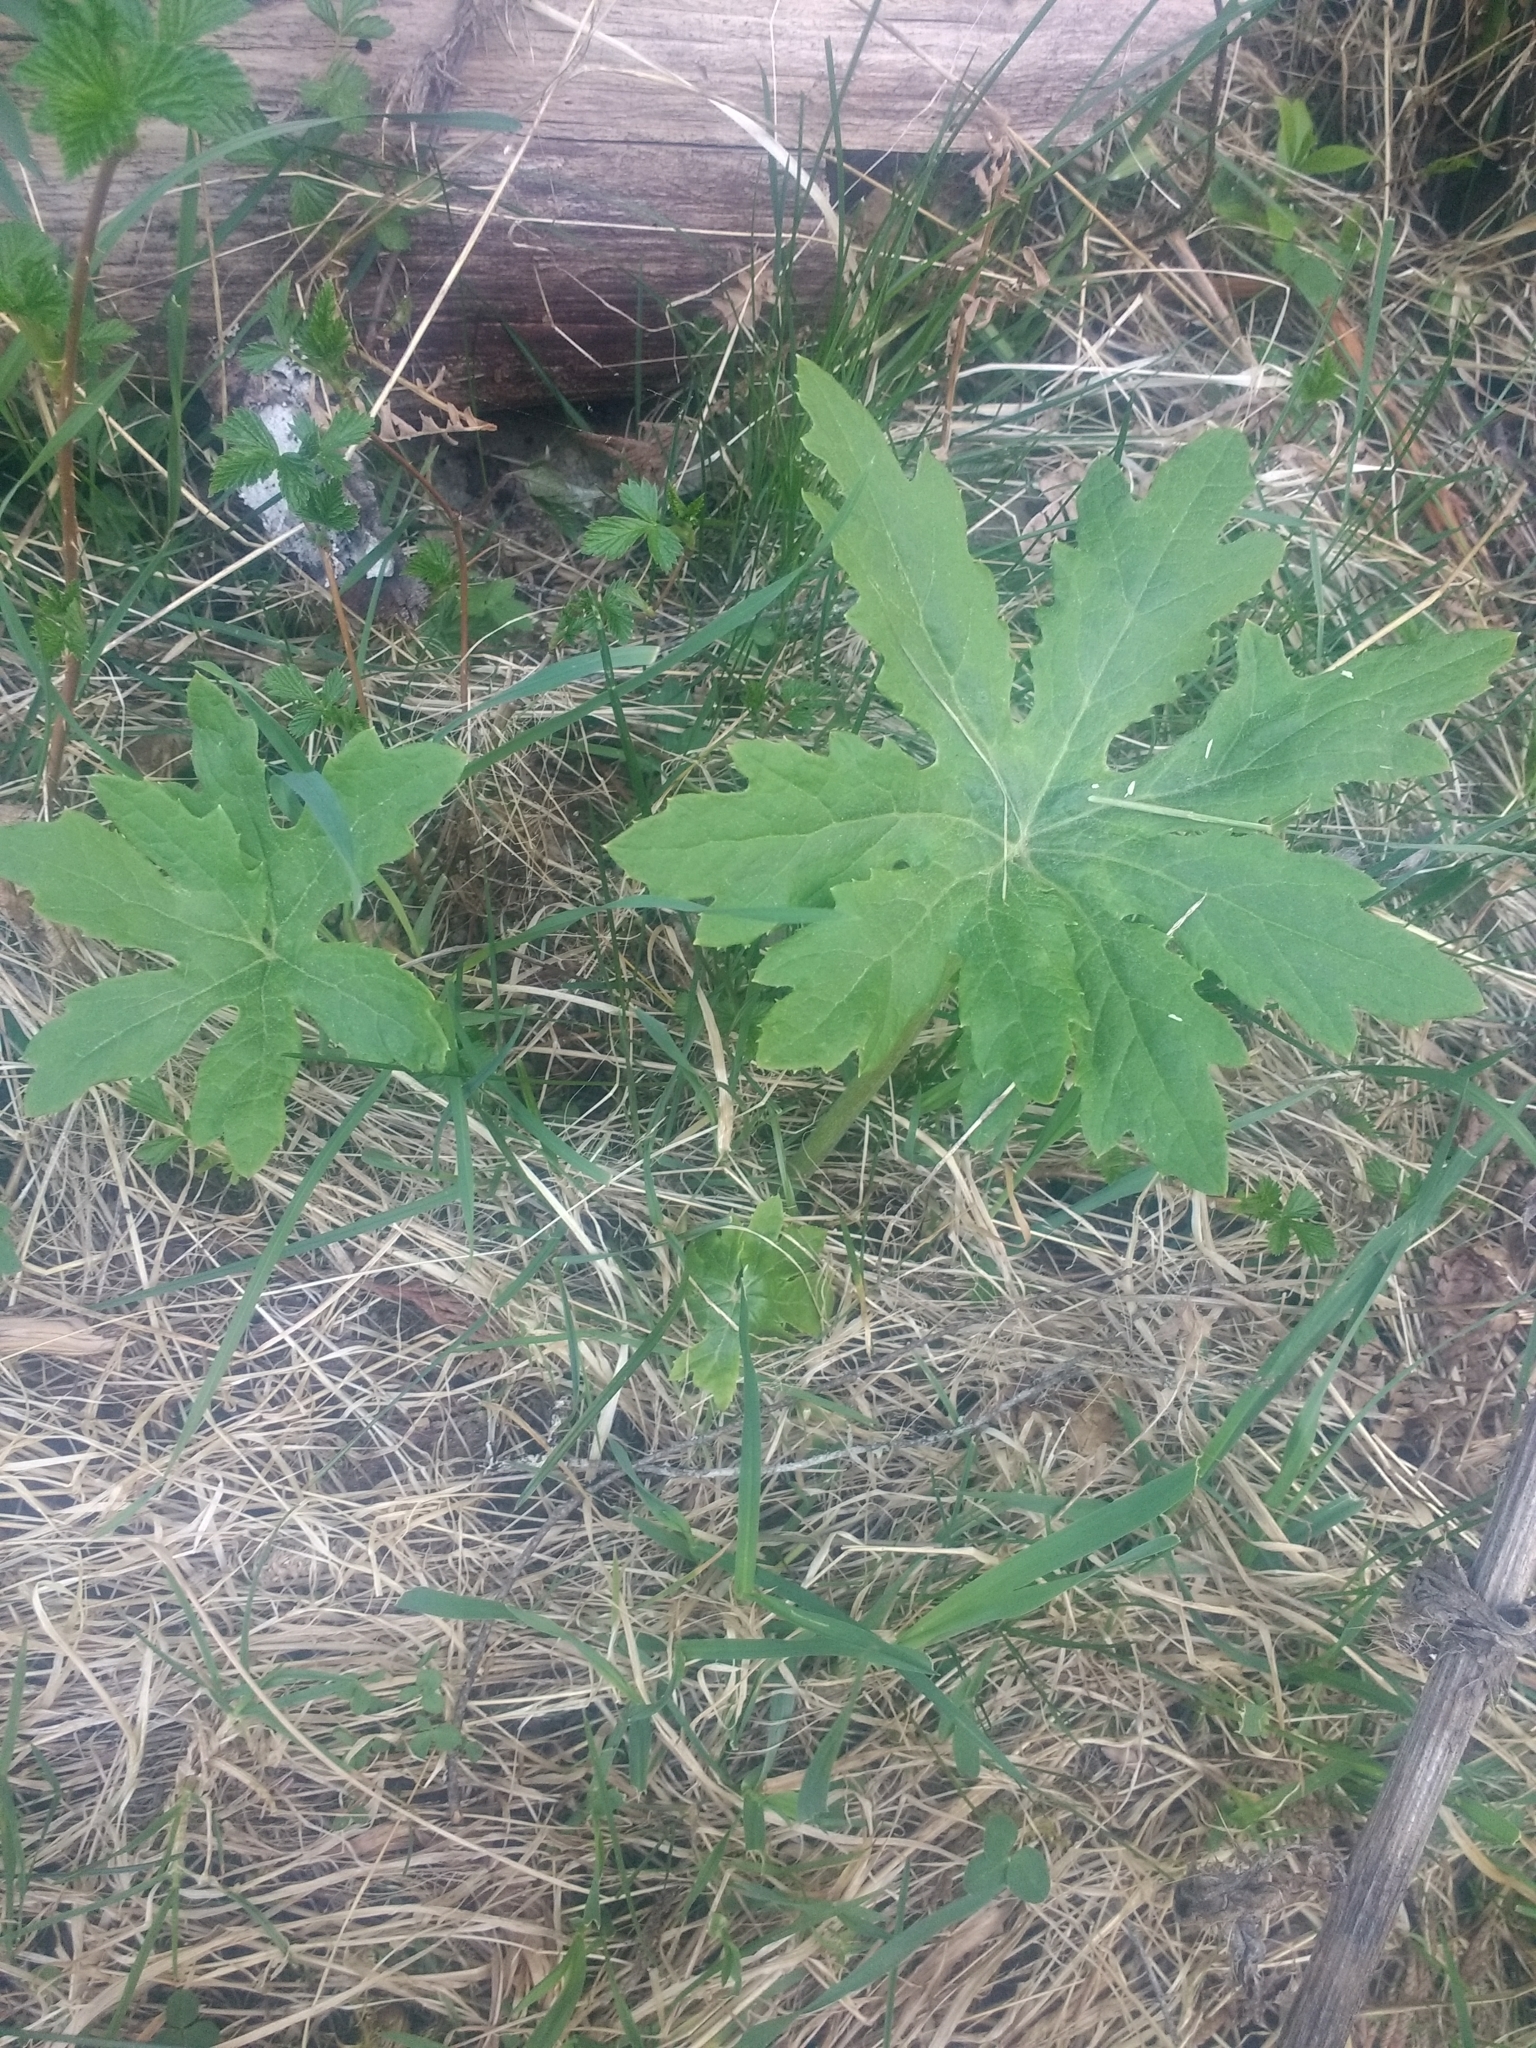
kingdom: Plantae
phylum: Tracheophyta
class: Magnoliopsida
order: Asterales
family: Asteraceae
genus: Petasites
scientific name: Petasites frigidus
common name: Arctic butterbur
